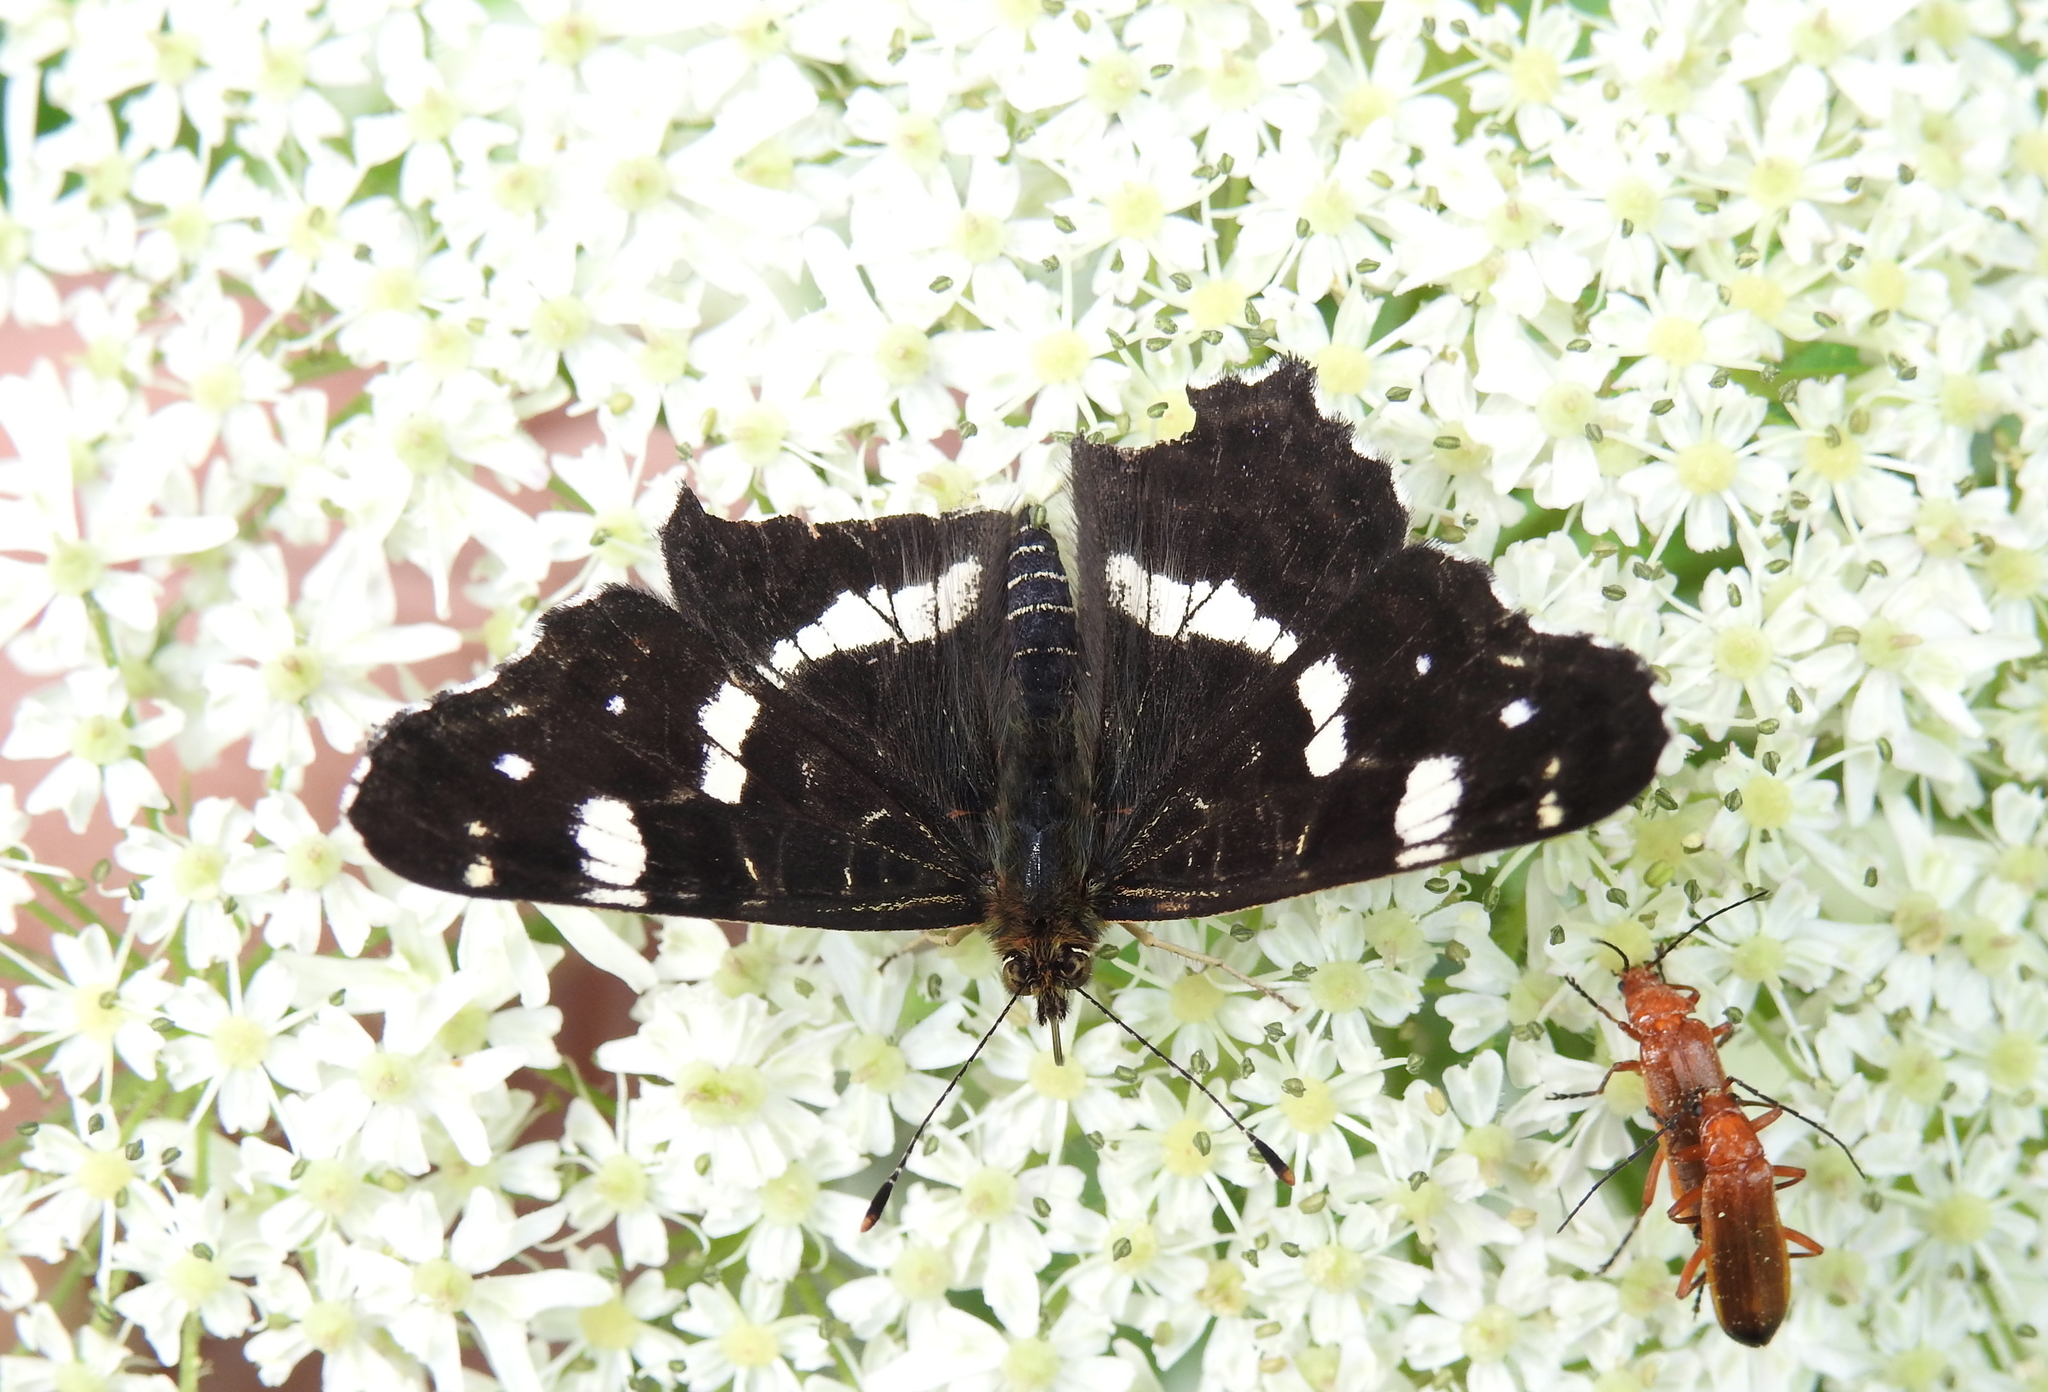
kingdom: Animalia
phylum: Arthropoda
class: Insecta
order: Lepidoptera
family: Nymphalidae
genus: Araschnia
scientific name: Araschnia levana
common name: Map butterfly
